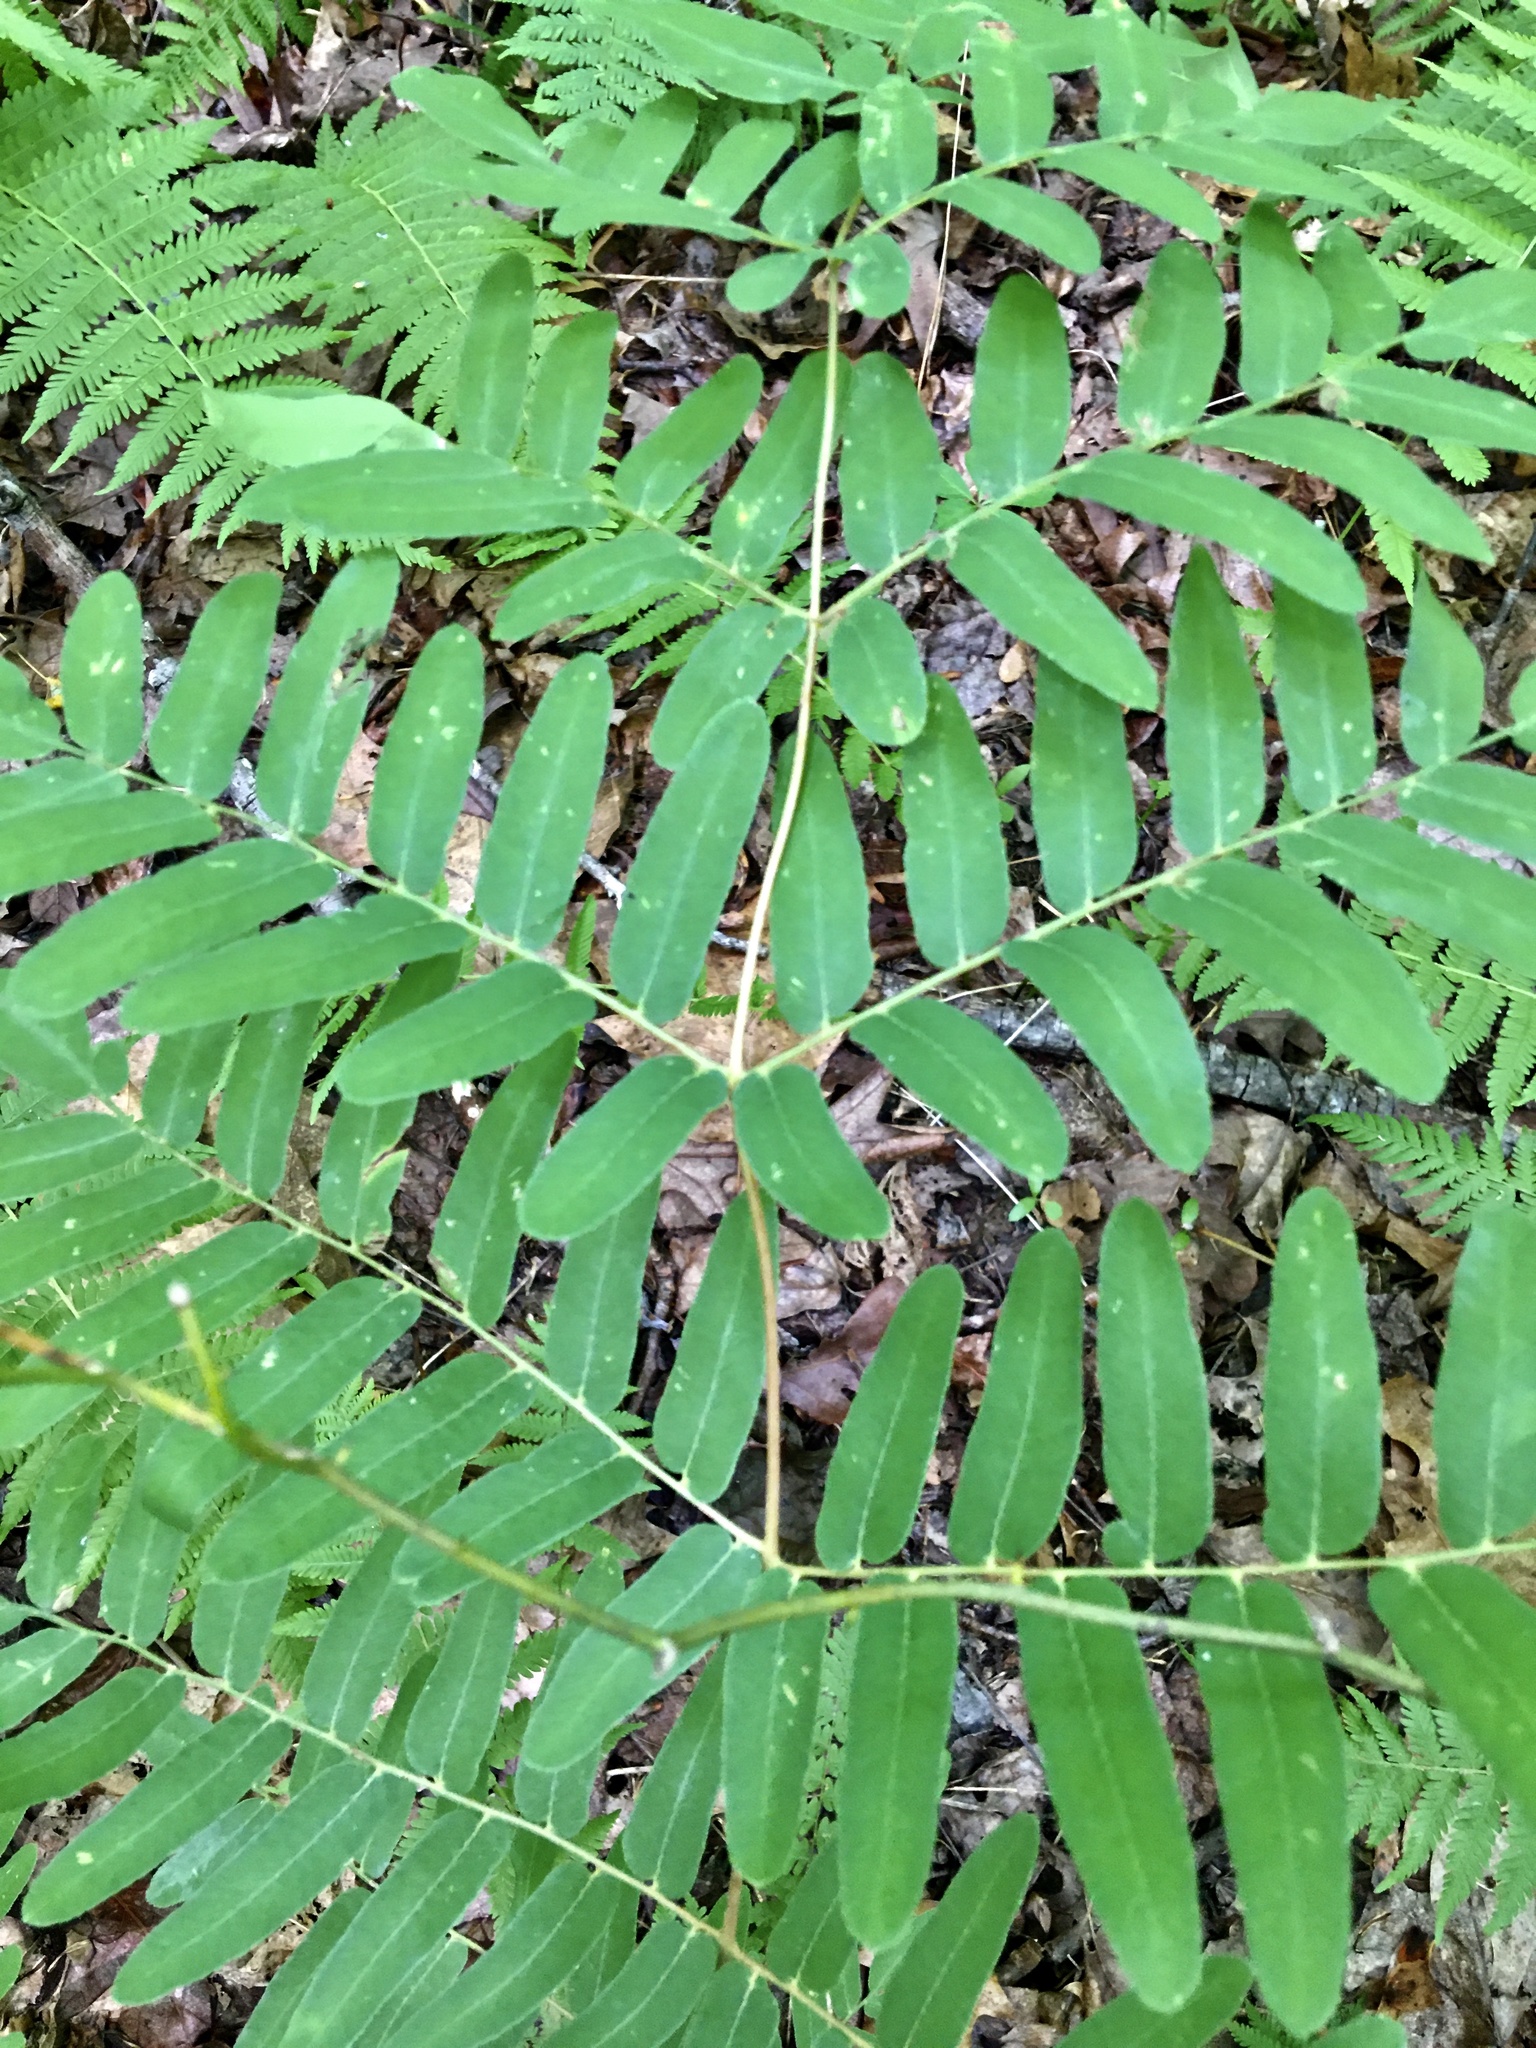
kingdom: Plantae
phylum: Tracheophyta
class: Polypodiopsida
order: Osmundales
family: Osmundaceae
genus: Osmunda
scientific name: Osmunda spectabilis
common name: American royal fern
